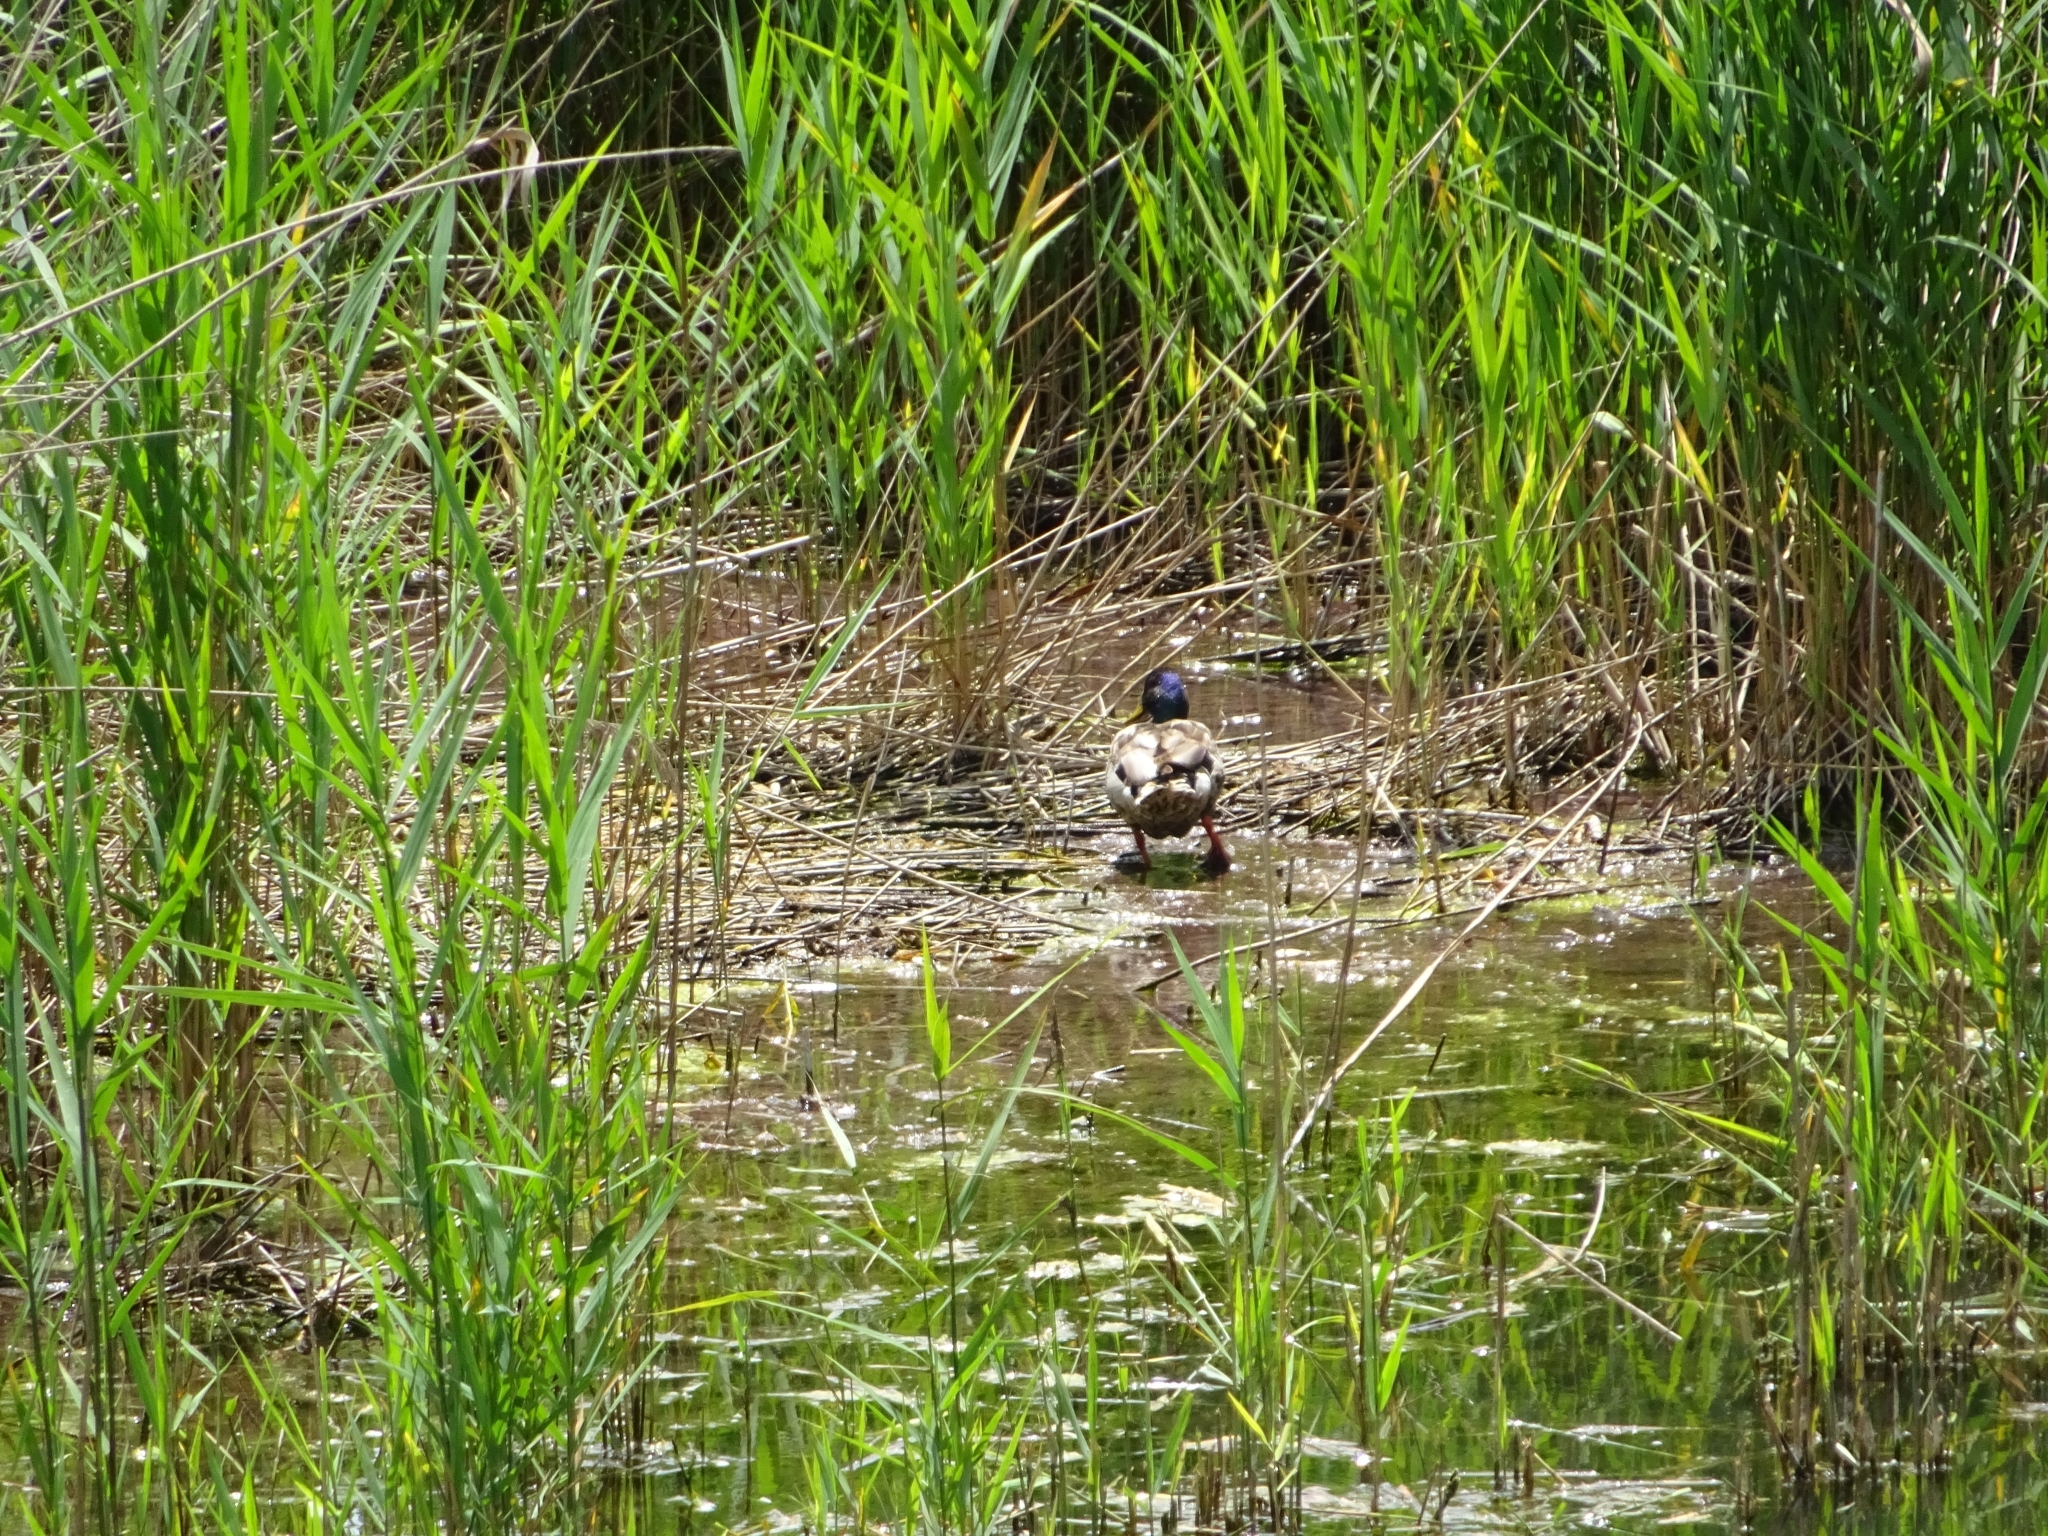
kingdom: Animalia
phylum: Chordata
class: Aves
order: Anseriformes
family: Anatidae
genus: Anas
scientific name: Anas platyrhynchos
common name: Mallard
